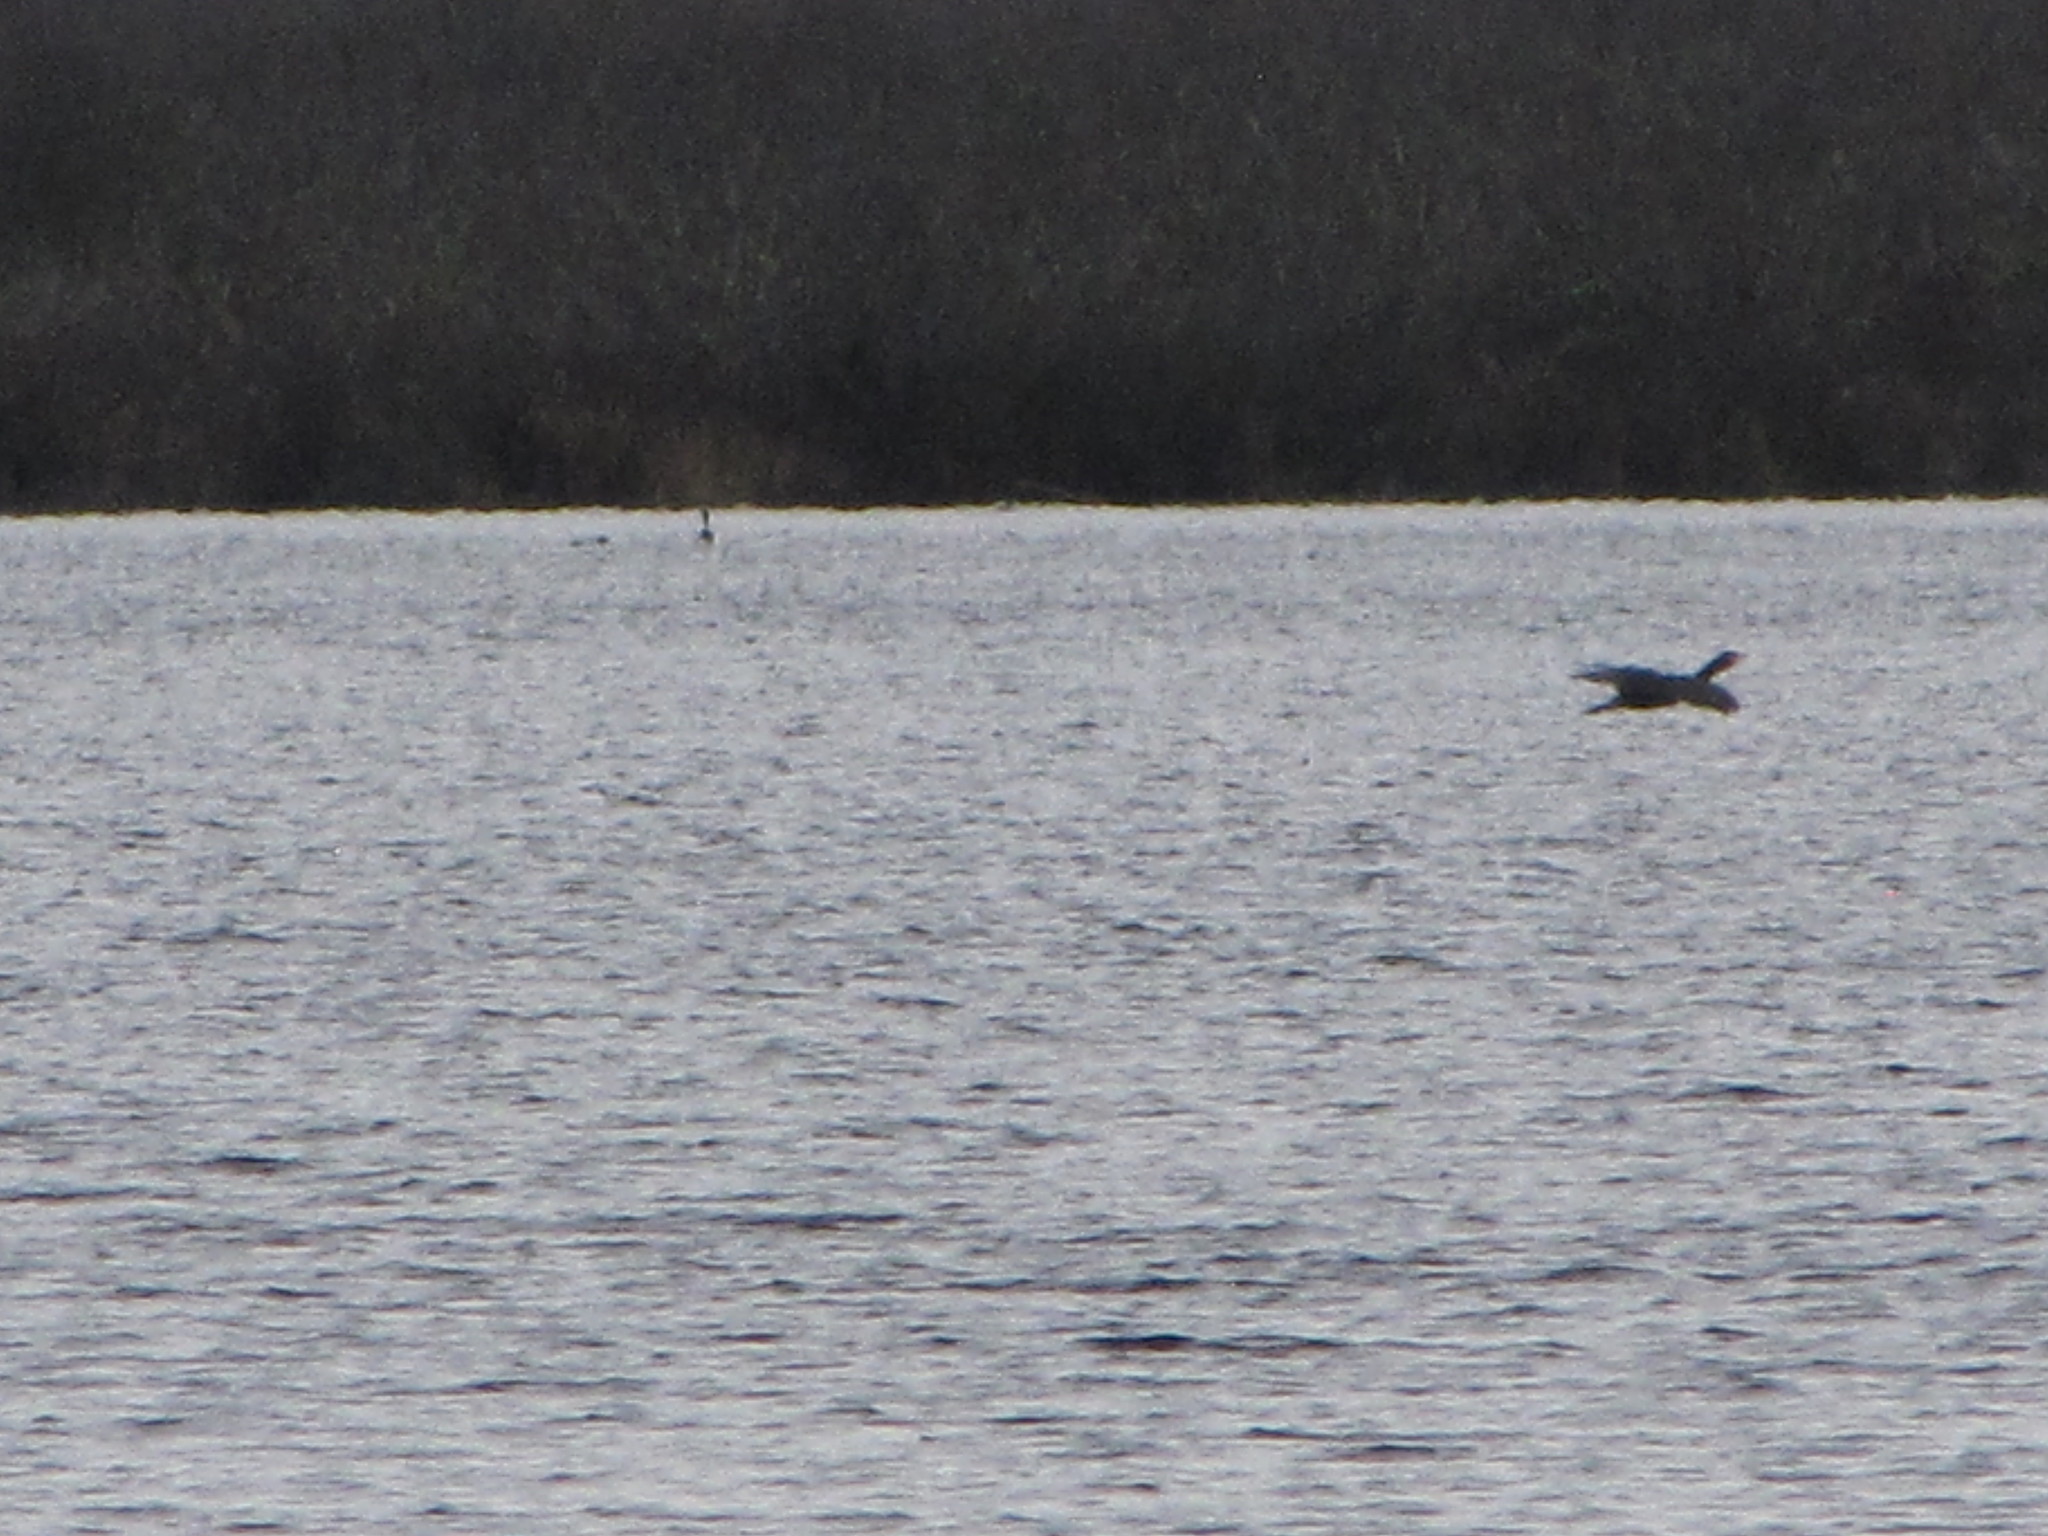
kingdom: Animalia
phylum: Chordata
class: Aves
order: Suliformes
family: Phalacrocoracidae
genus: Phalacrocorax
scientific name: Phalacrocorax auritus
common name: Double-crested cormorant
